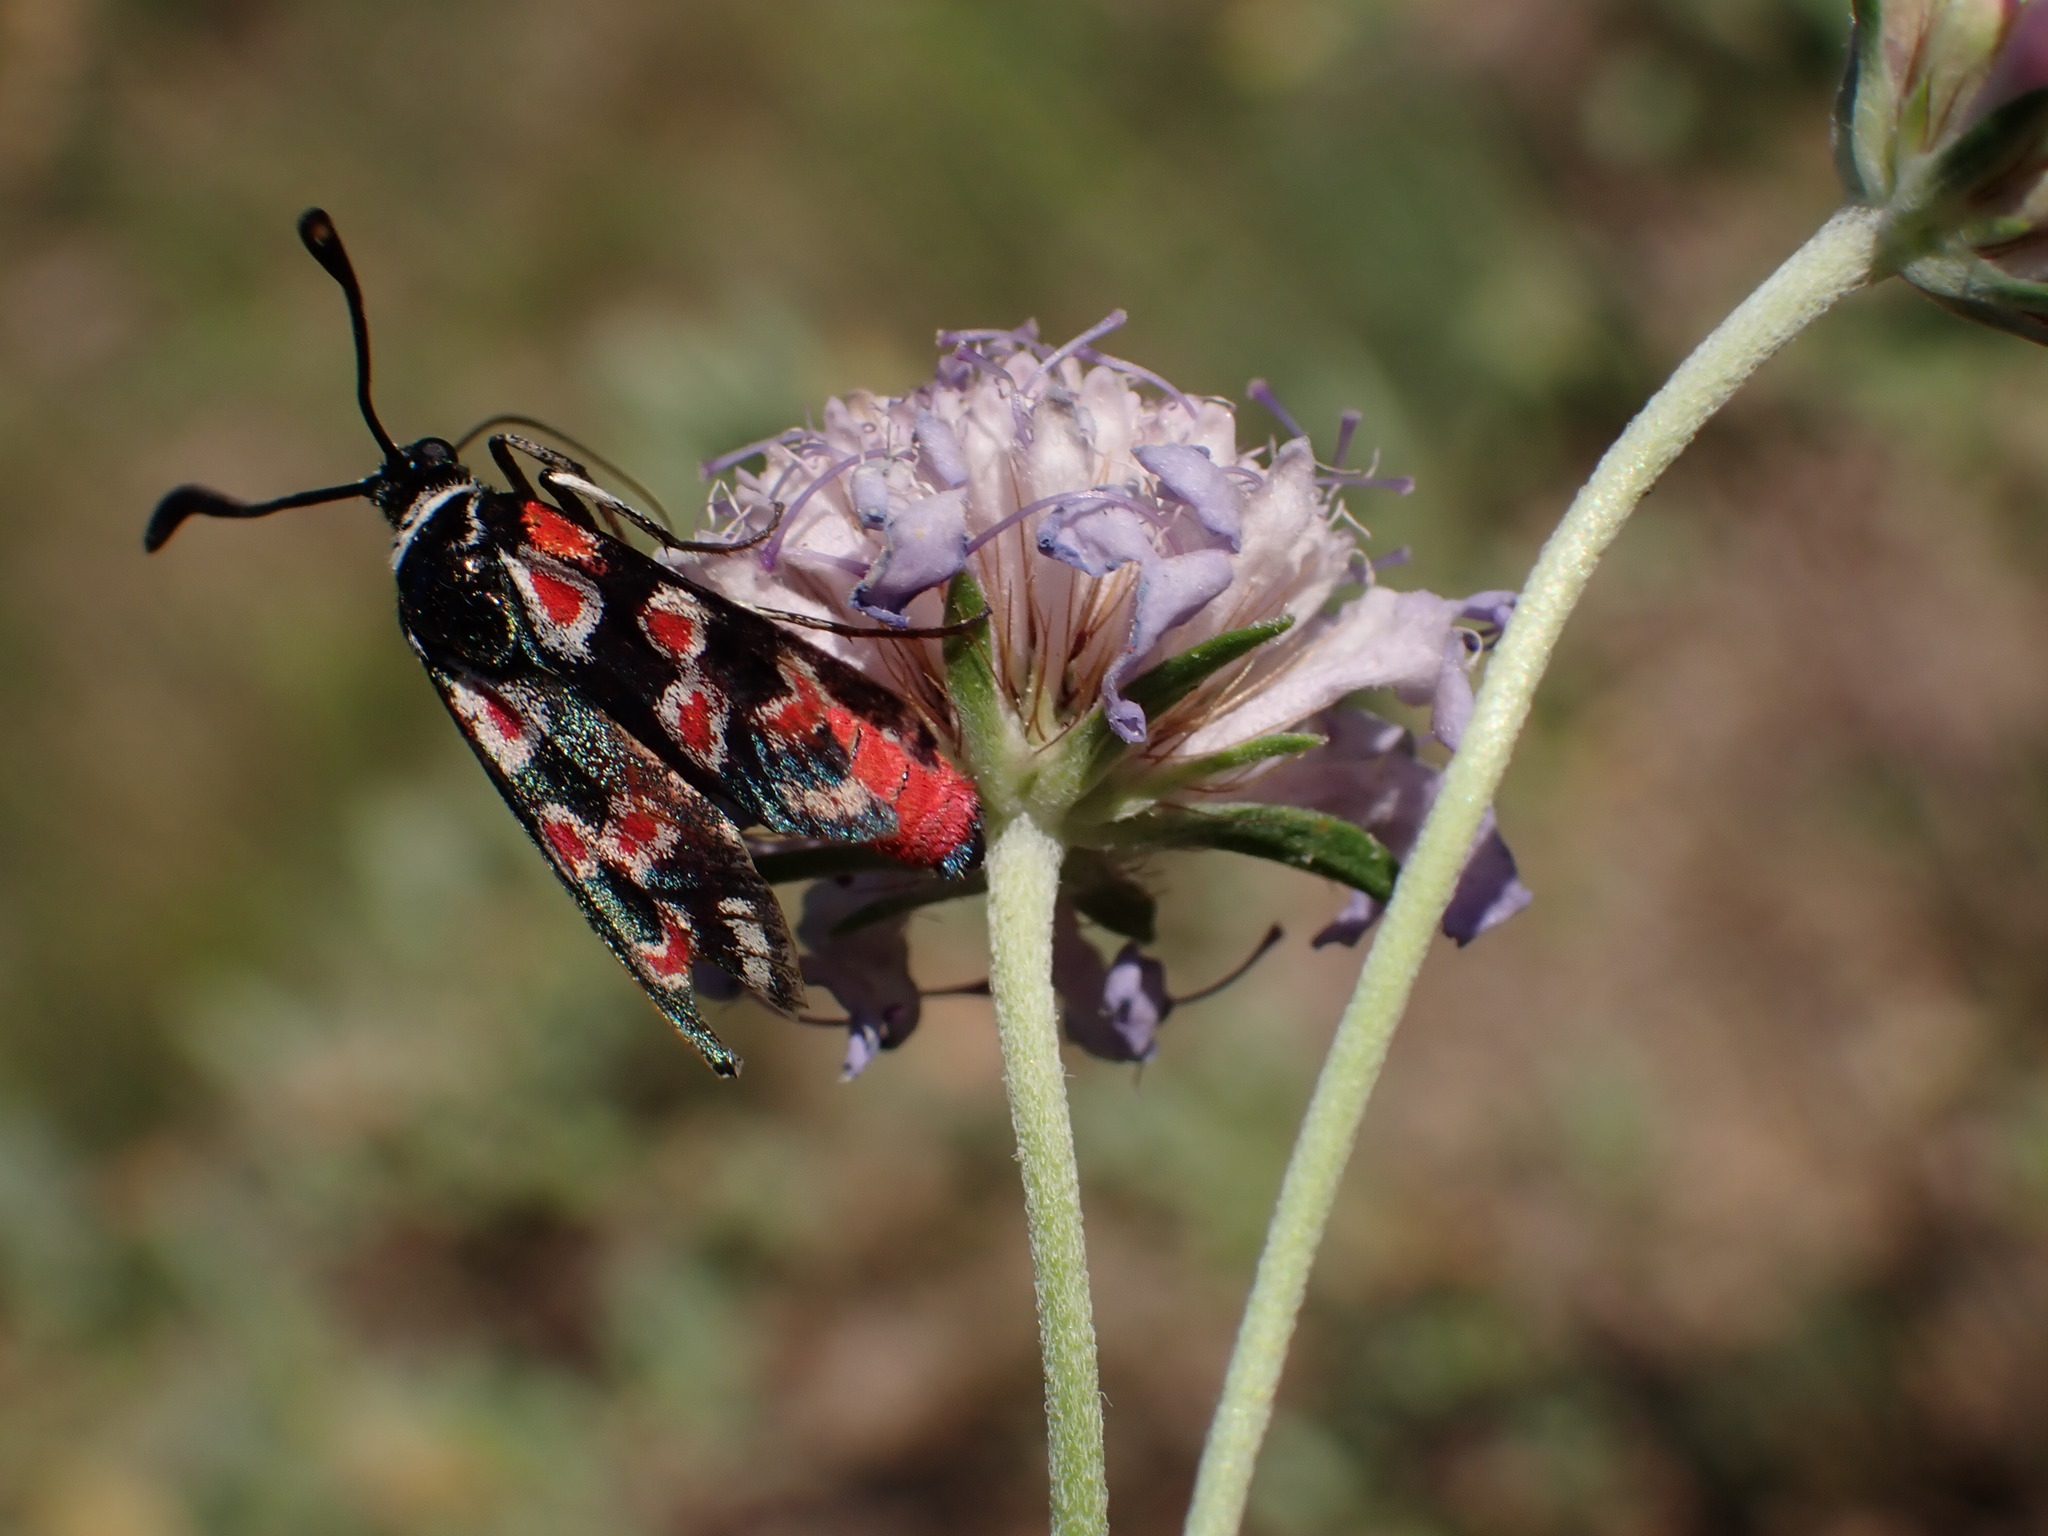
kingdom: Animalia
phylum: Arthropoda
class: Insecta
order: Lepidoptera
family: Zygaenidae
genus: Zygaena
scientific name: Zygaena occitanica
